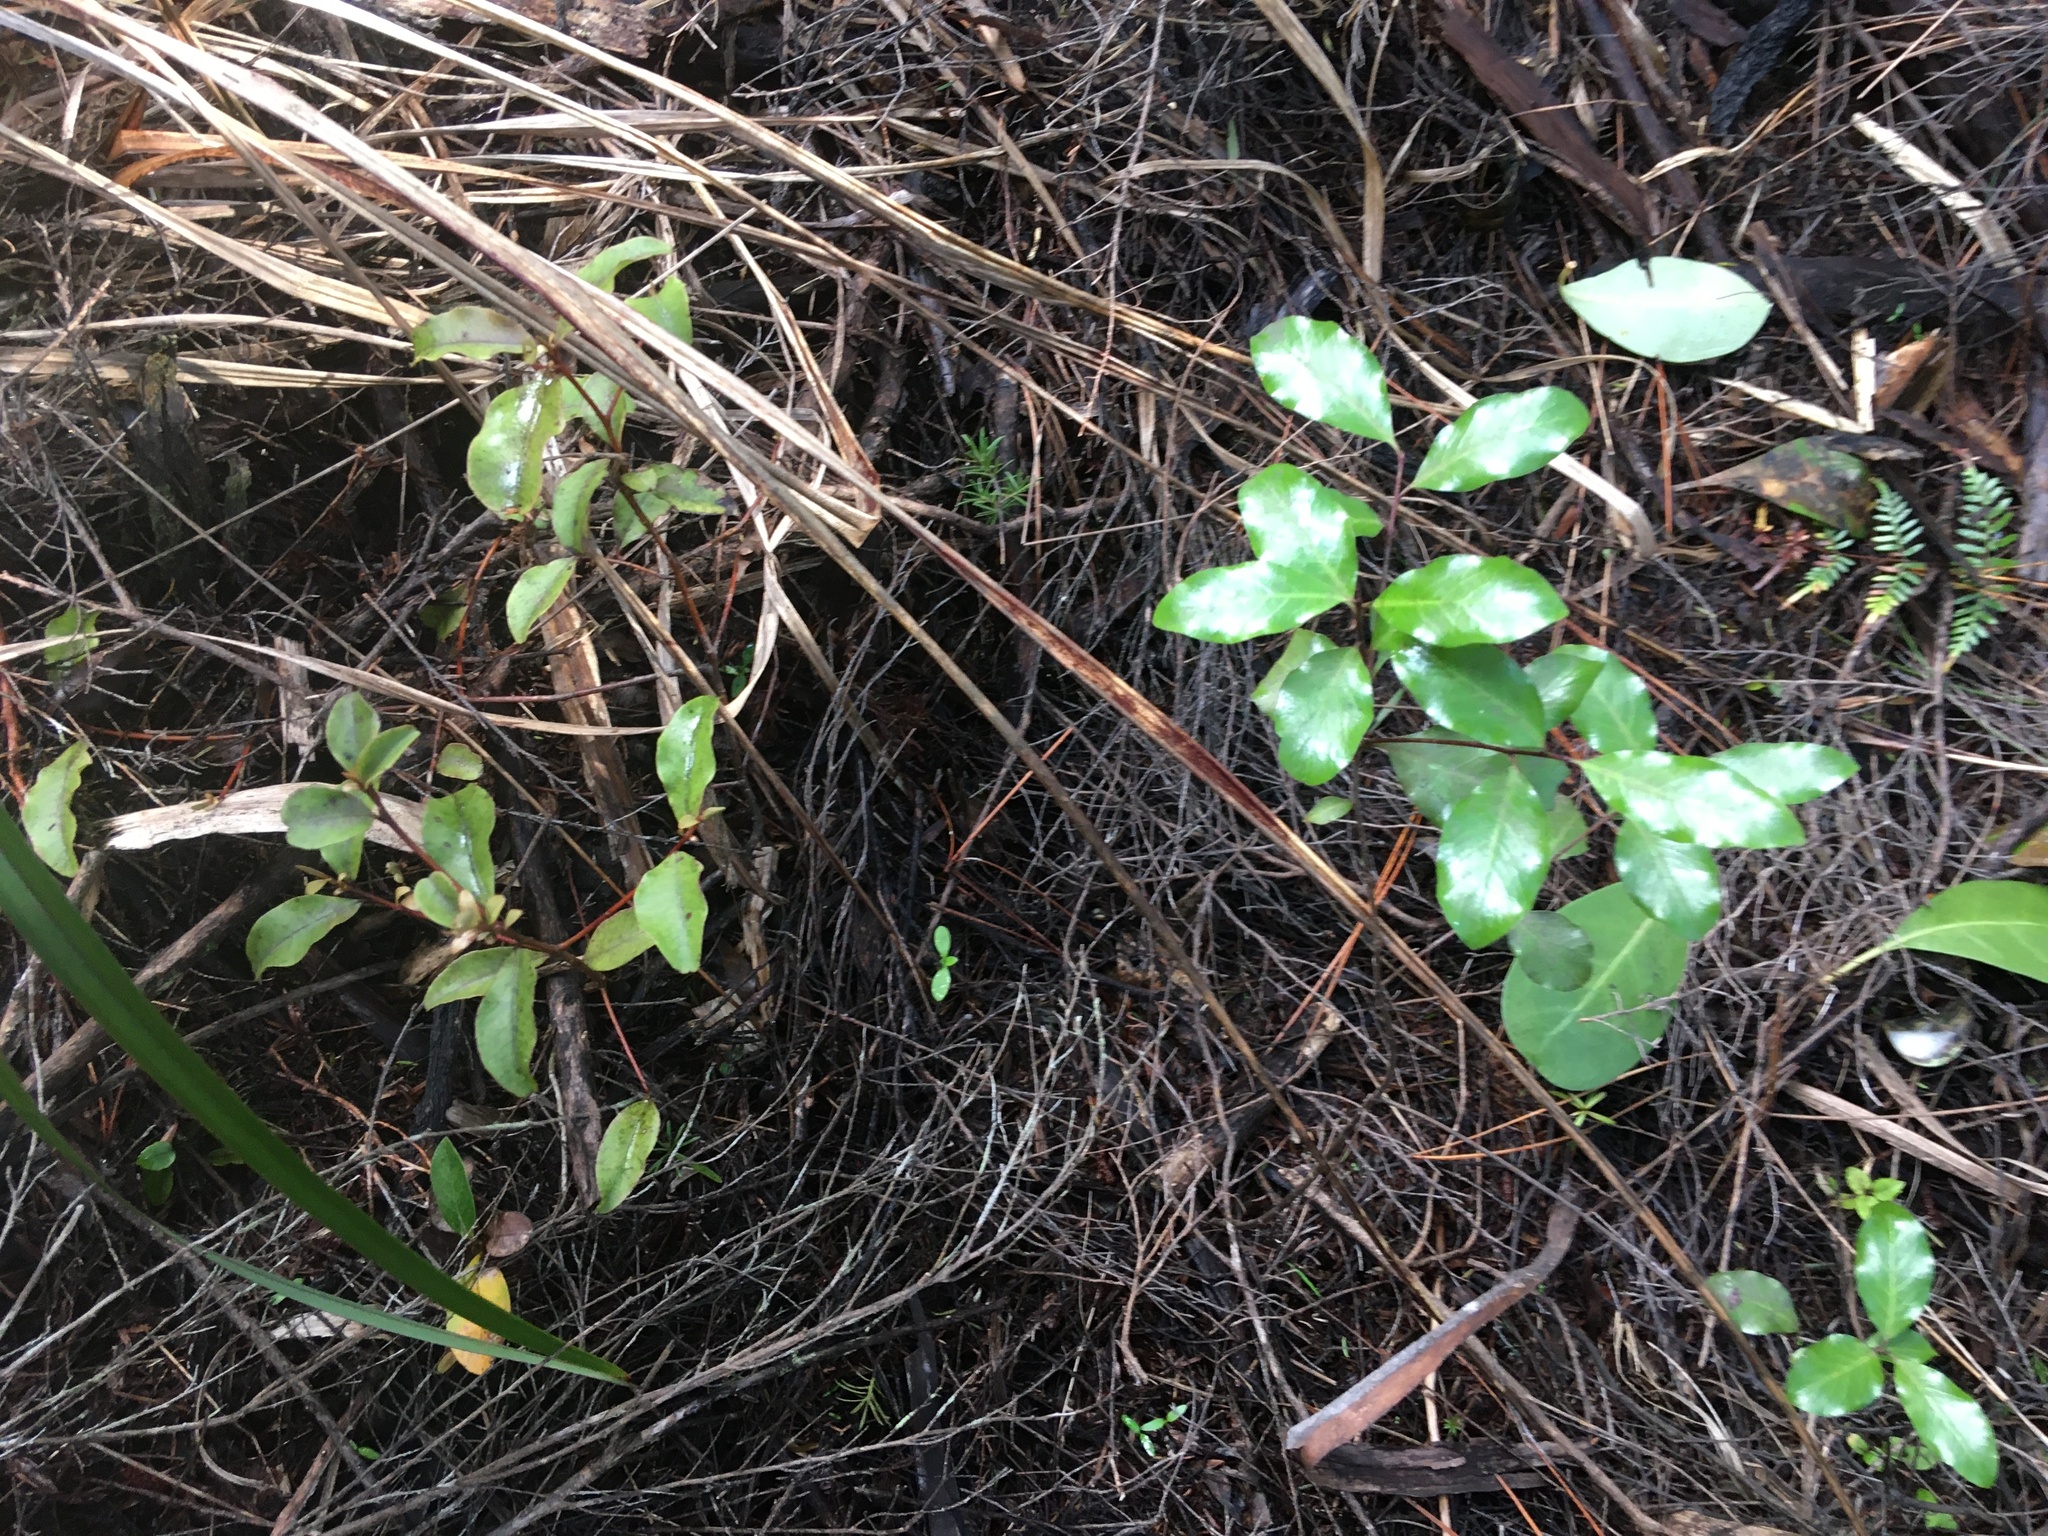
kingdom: Plantae
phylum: Tracheophyta
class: Magnoliopsida
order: Ericales
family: Primulaceae
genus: Myrsine
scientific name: Myrsine australis
